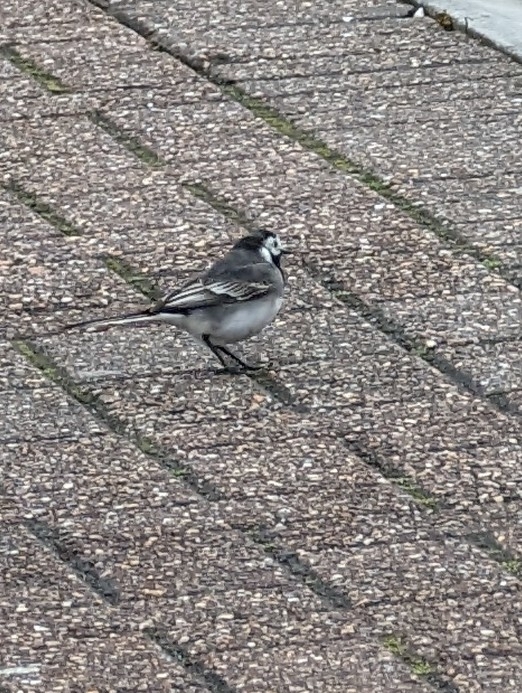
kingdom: Animalia
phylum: Chordata
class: Aves
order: Passeriformes
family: Motacillidae
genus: Motacilla
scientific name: Motacilla alba
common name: White wagtail
